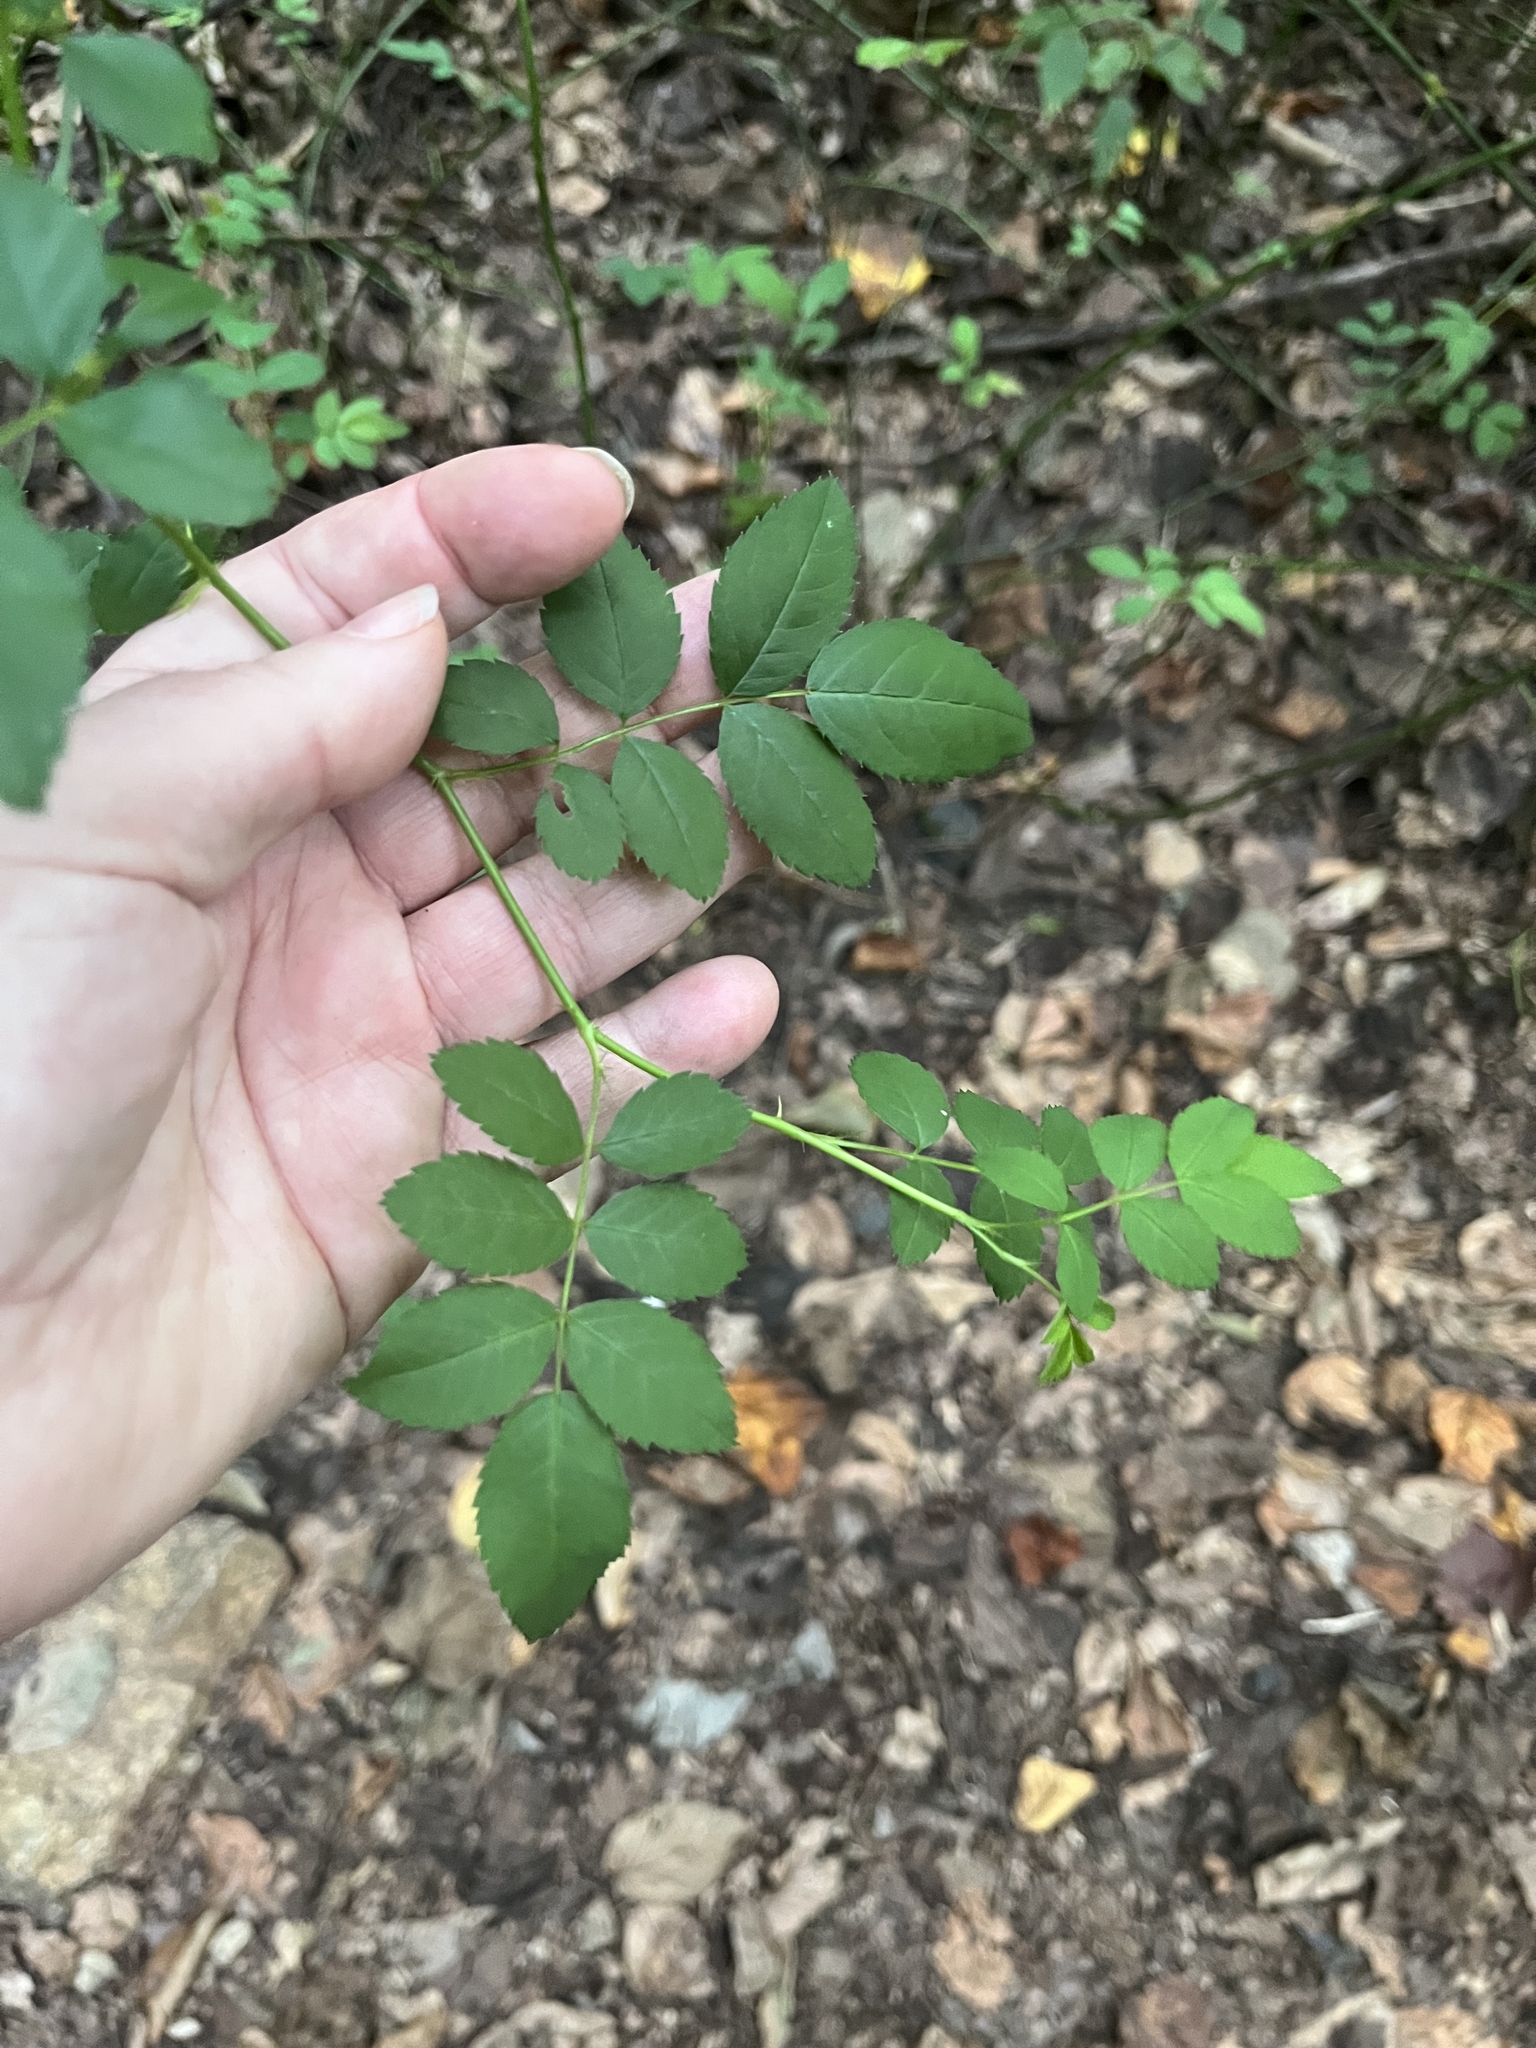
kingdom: Plantae
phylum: Tracheophyta
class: Magnoliopsida
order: Rosales
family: Rosaceae
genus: Rosa
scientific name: Rosa multiflora
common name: Multiflora rose
